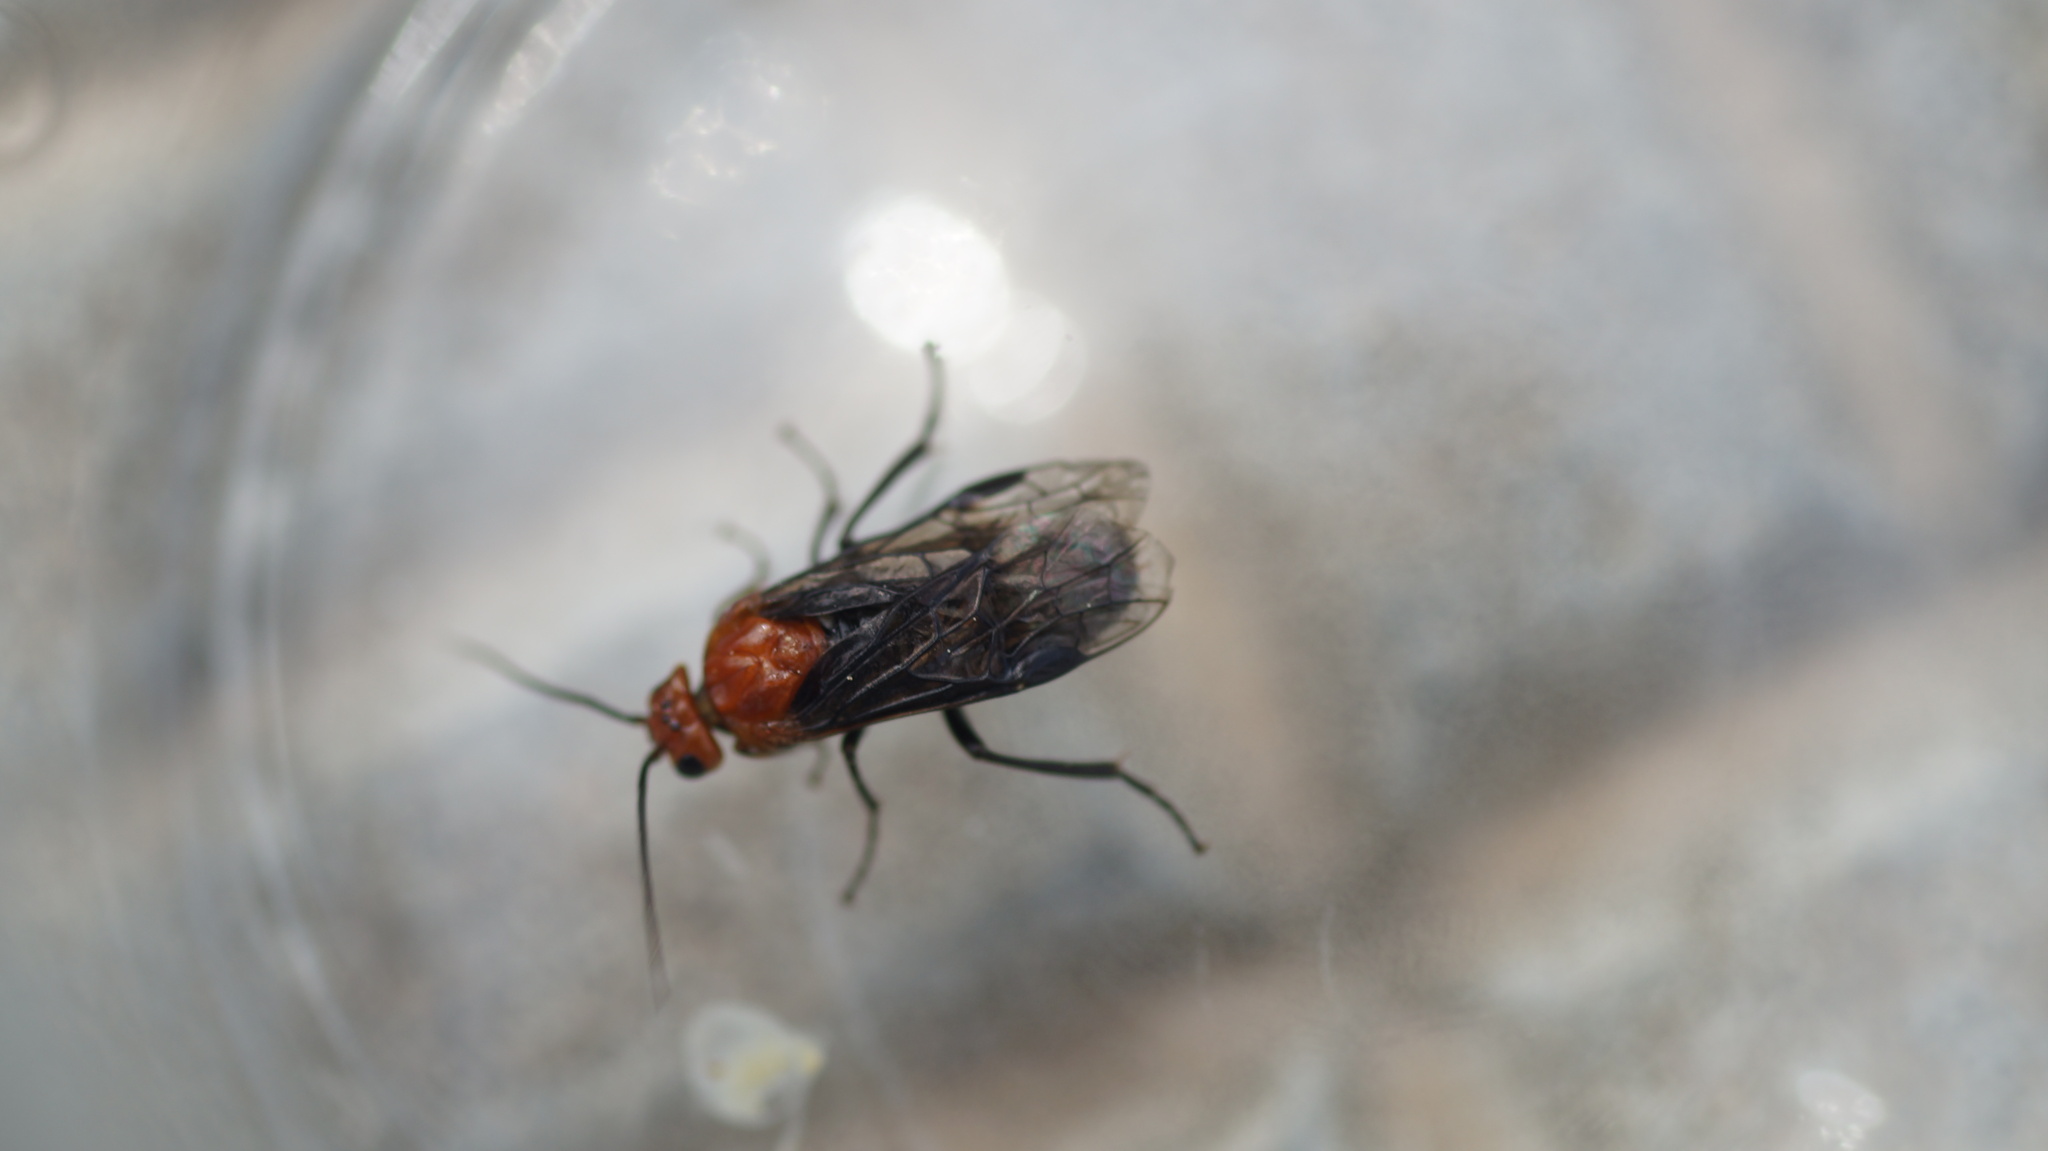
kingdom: Animalia
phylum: Arthropoda
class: Insecta
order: Hymenoptera
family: Tenthredinidae
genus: Hemichroa
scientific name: Hemichroa australis
